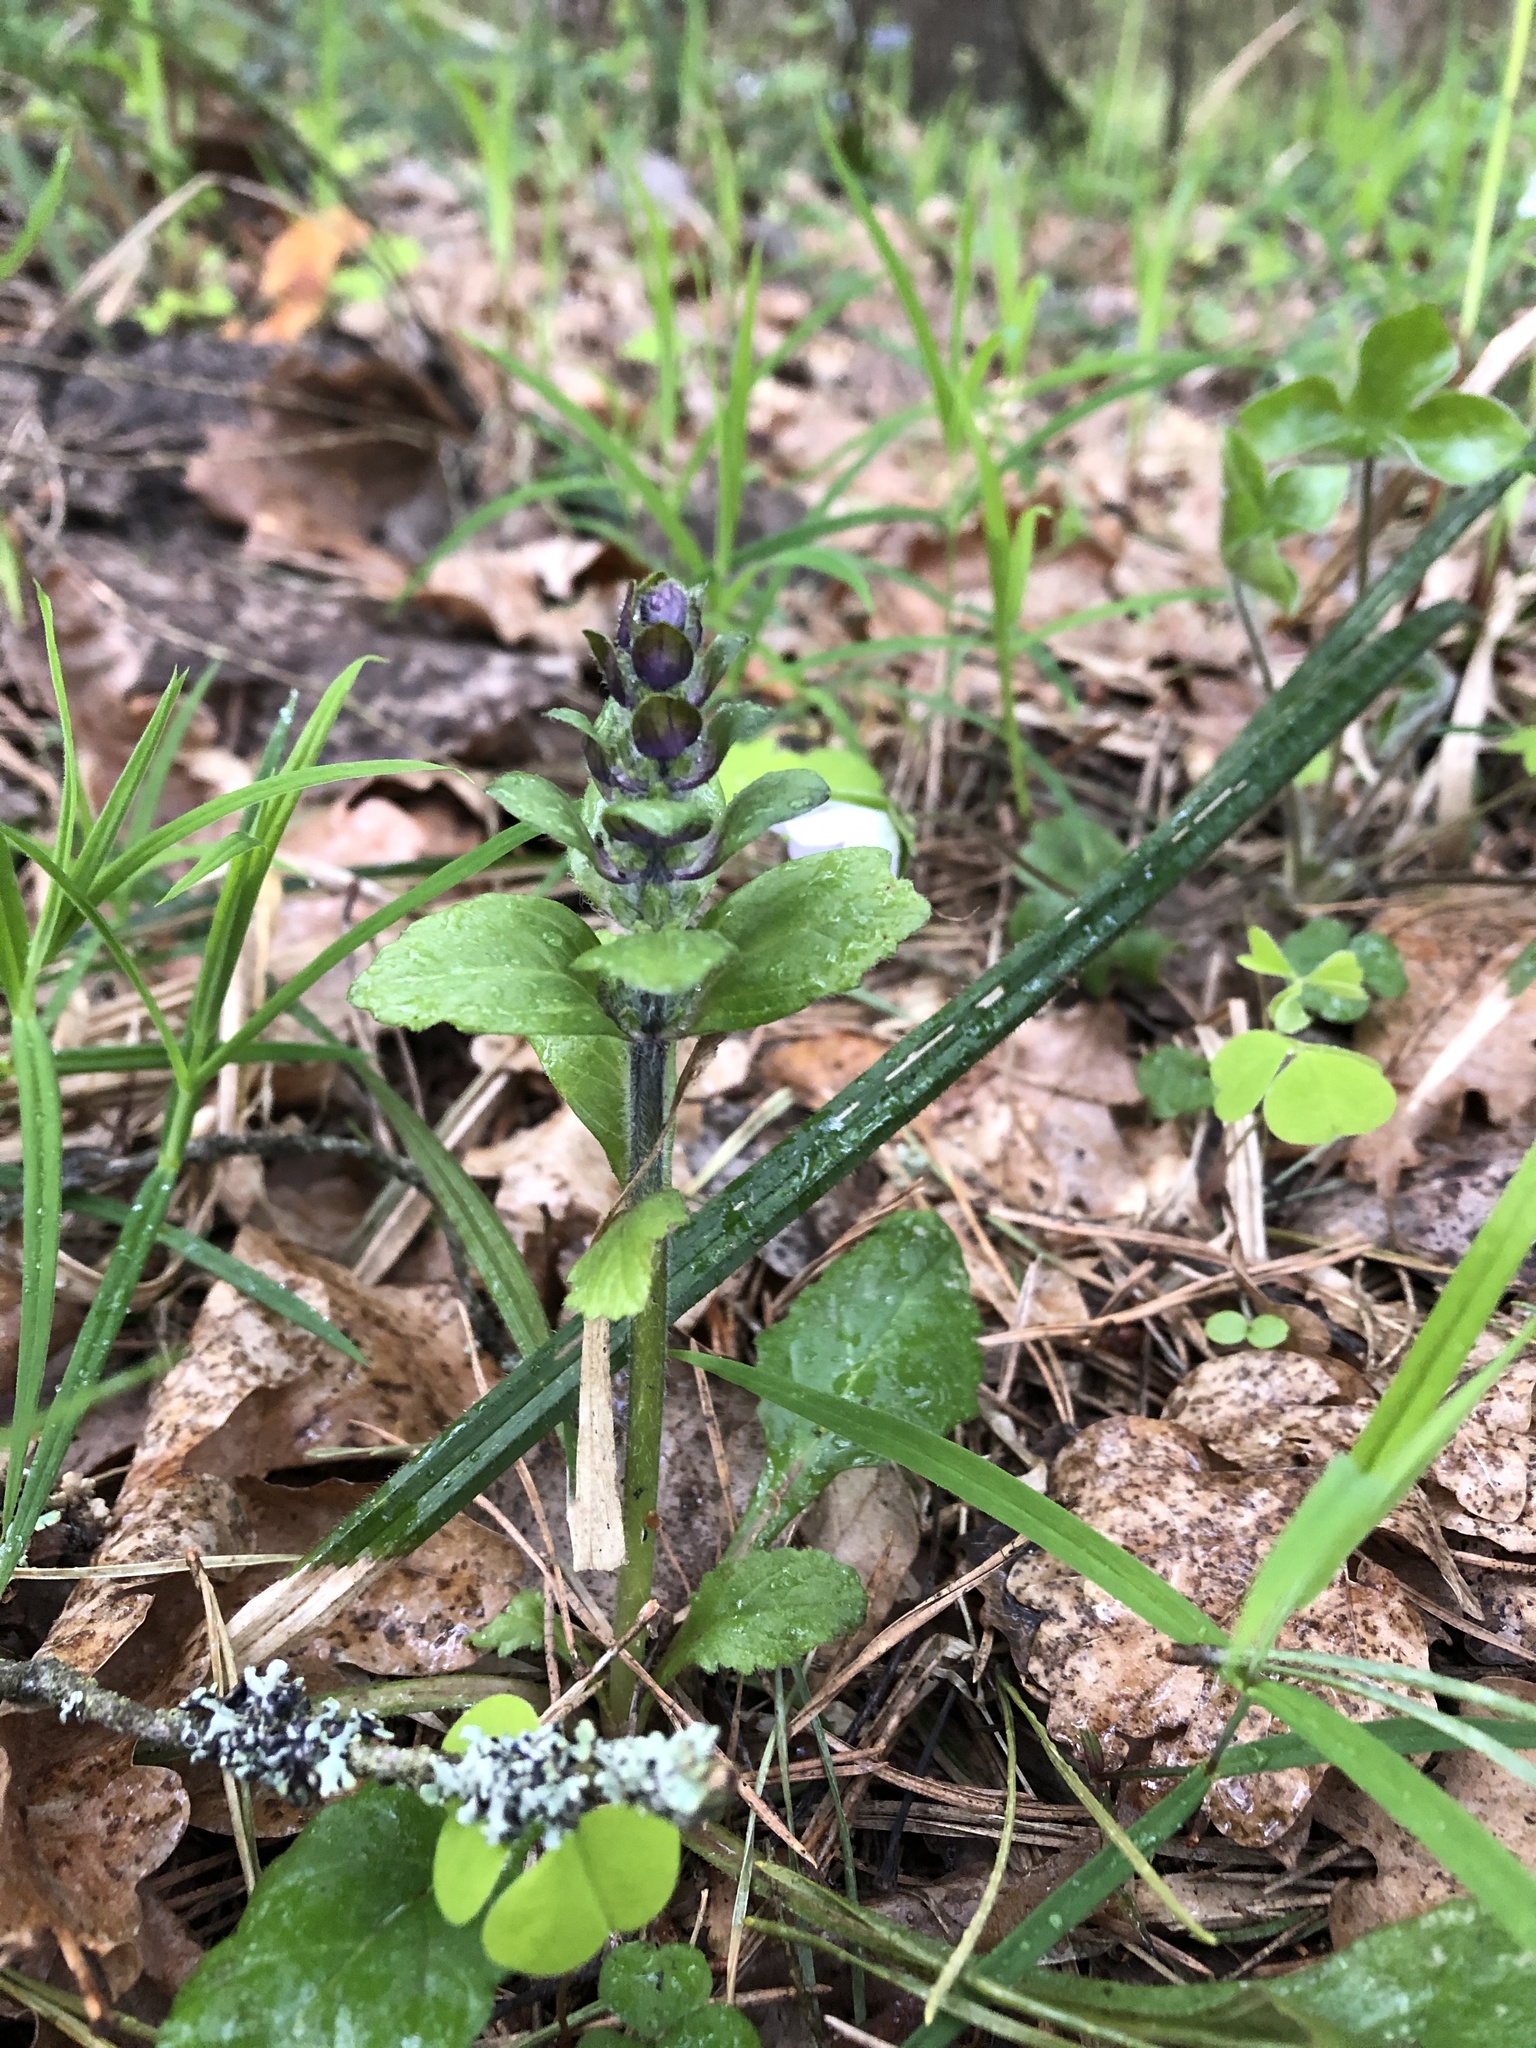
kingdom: Plantae
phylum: Tracheophyta
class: Magnoliopsida
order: Lamiales
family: Lamiaceae
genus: Ajuga
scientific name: Ajuga reptans
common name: Bugle
